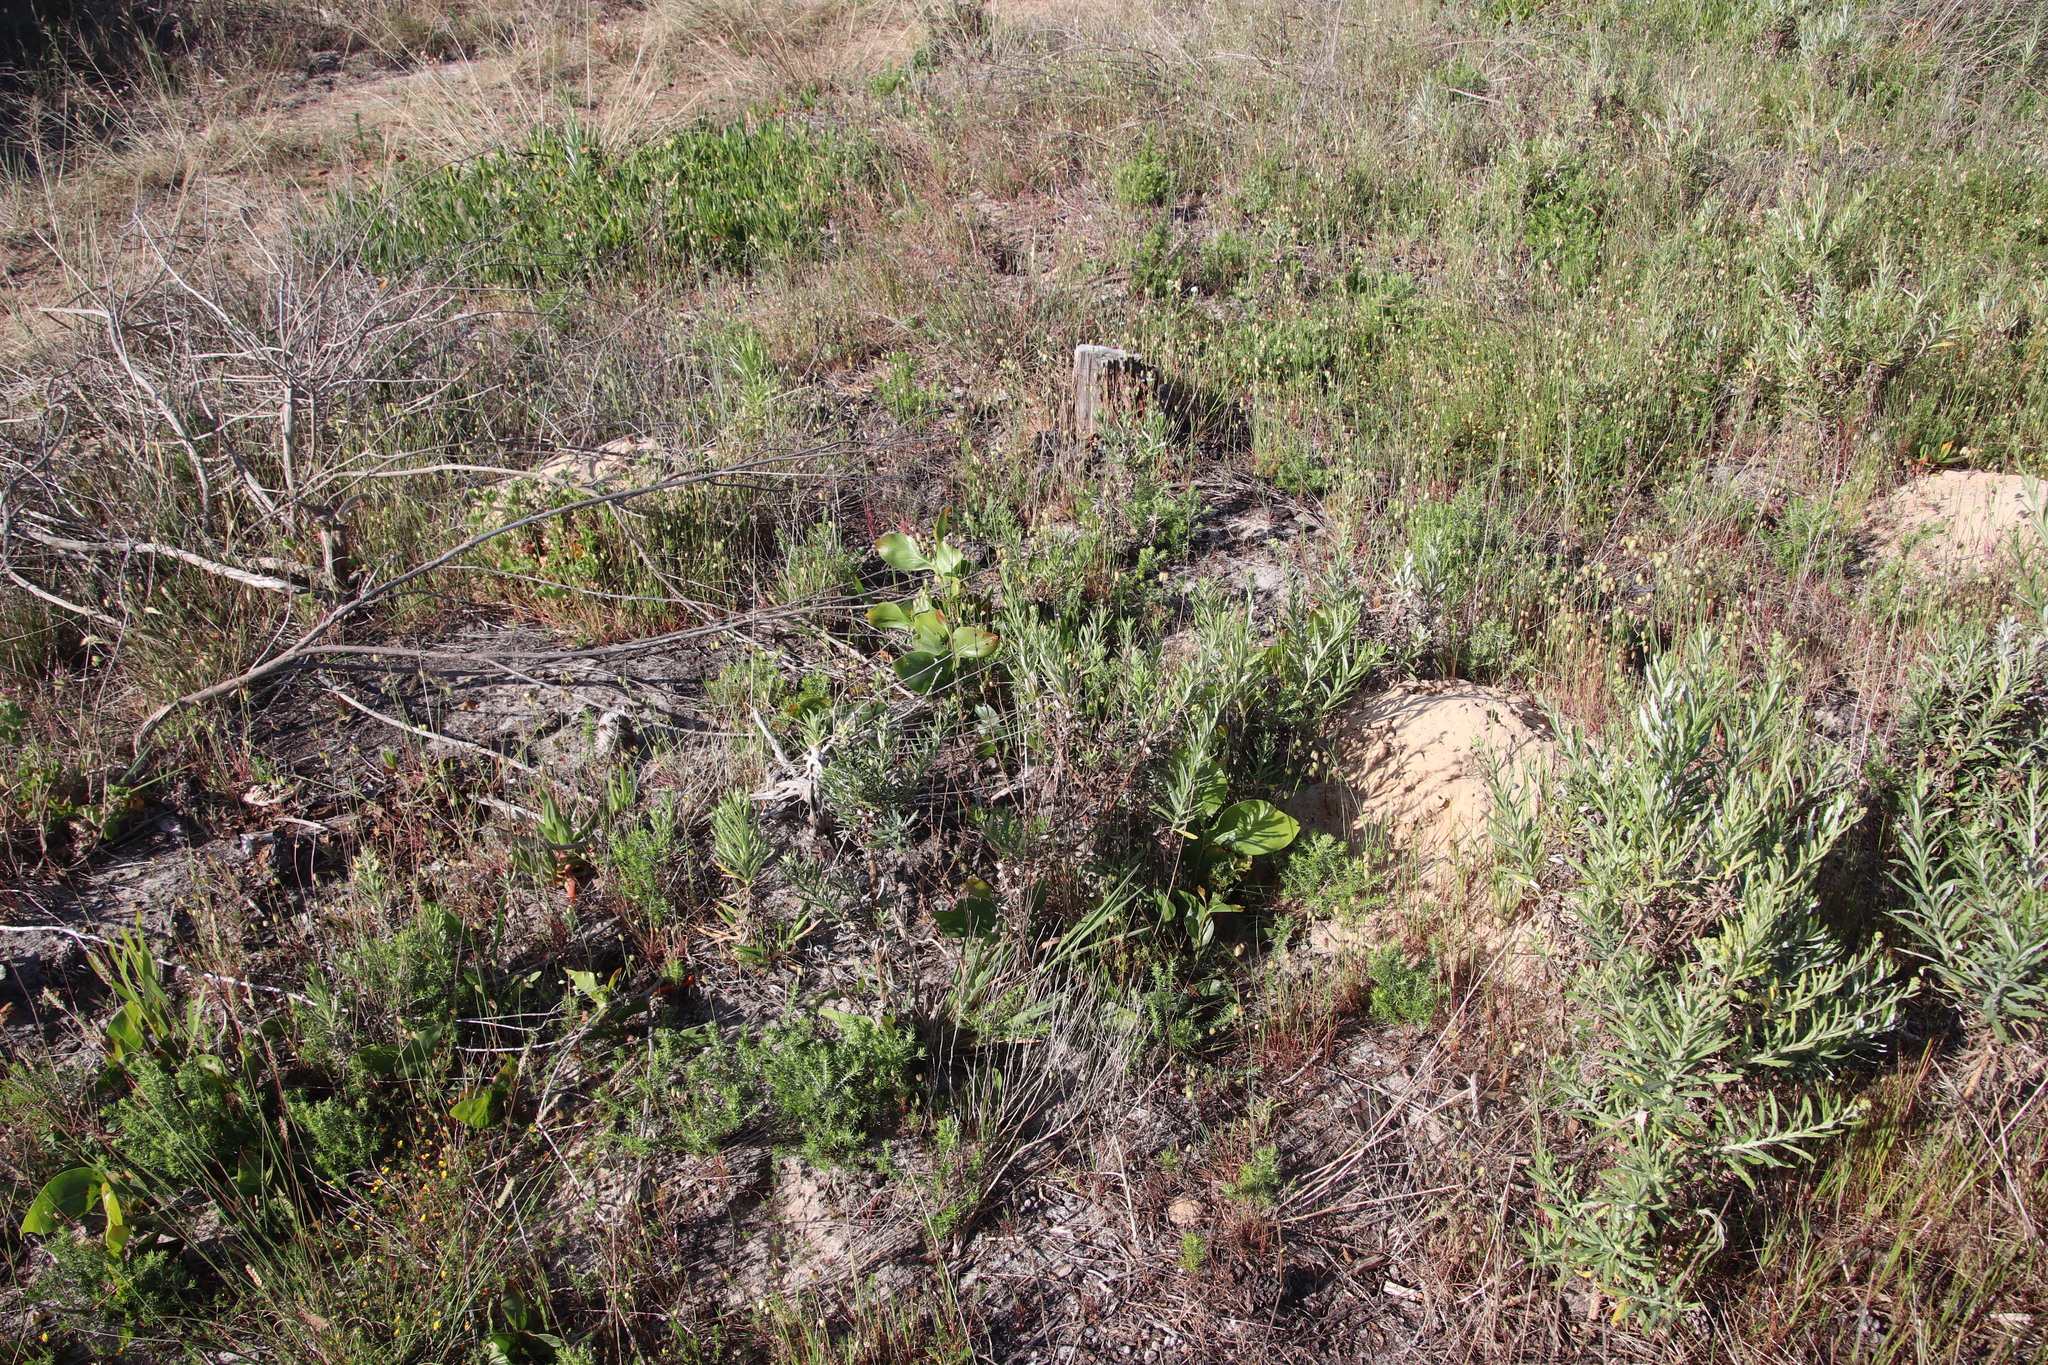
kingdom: Plantae
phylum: Tracheophyta
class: Magnoliopsida
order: Fabales
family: Fabaceae
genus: Acacia
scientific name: Acacia pycnantha
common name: Golden wattle
